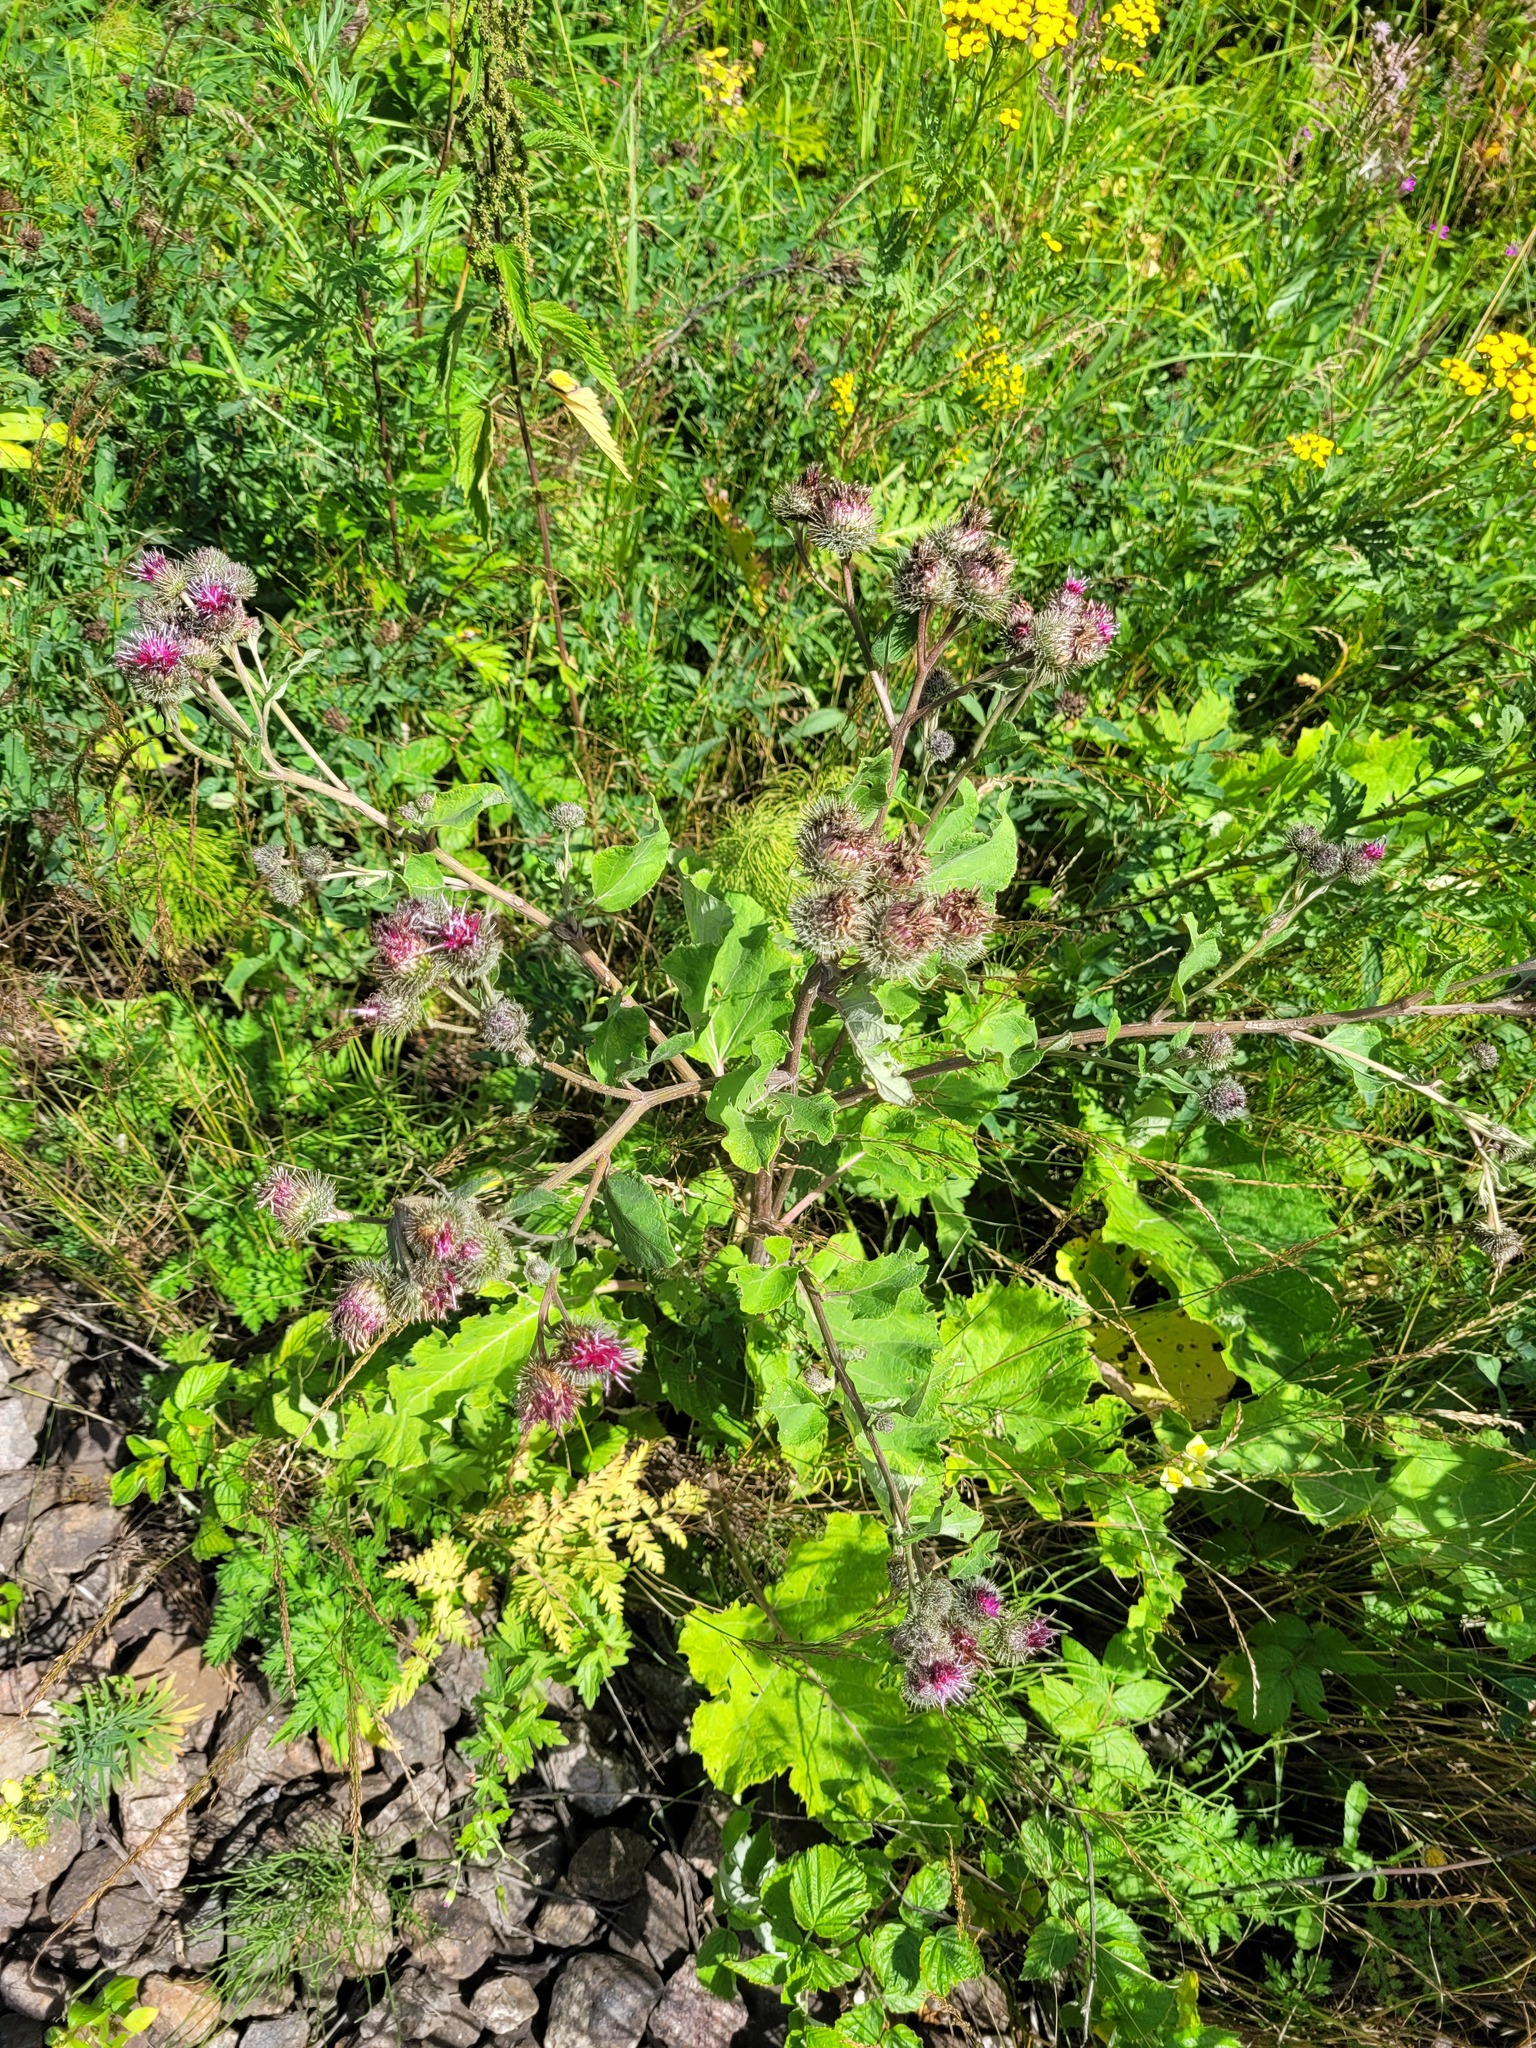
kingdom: Plantae
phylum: Tracheophyta
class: Magnoliopsida
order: Asterales
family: Asteraceae
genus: Arctium
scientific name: Arctium tomentosum
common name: Woolly burdock
